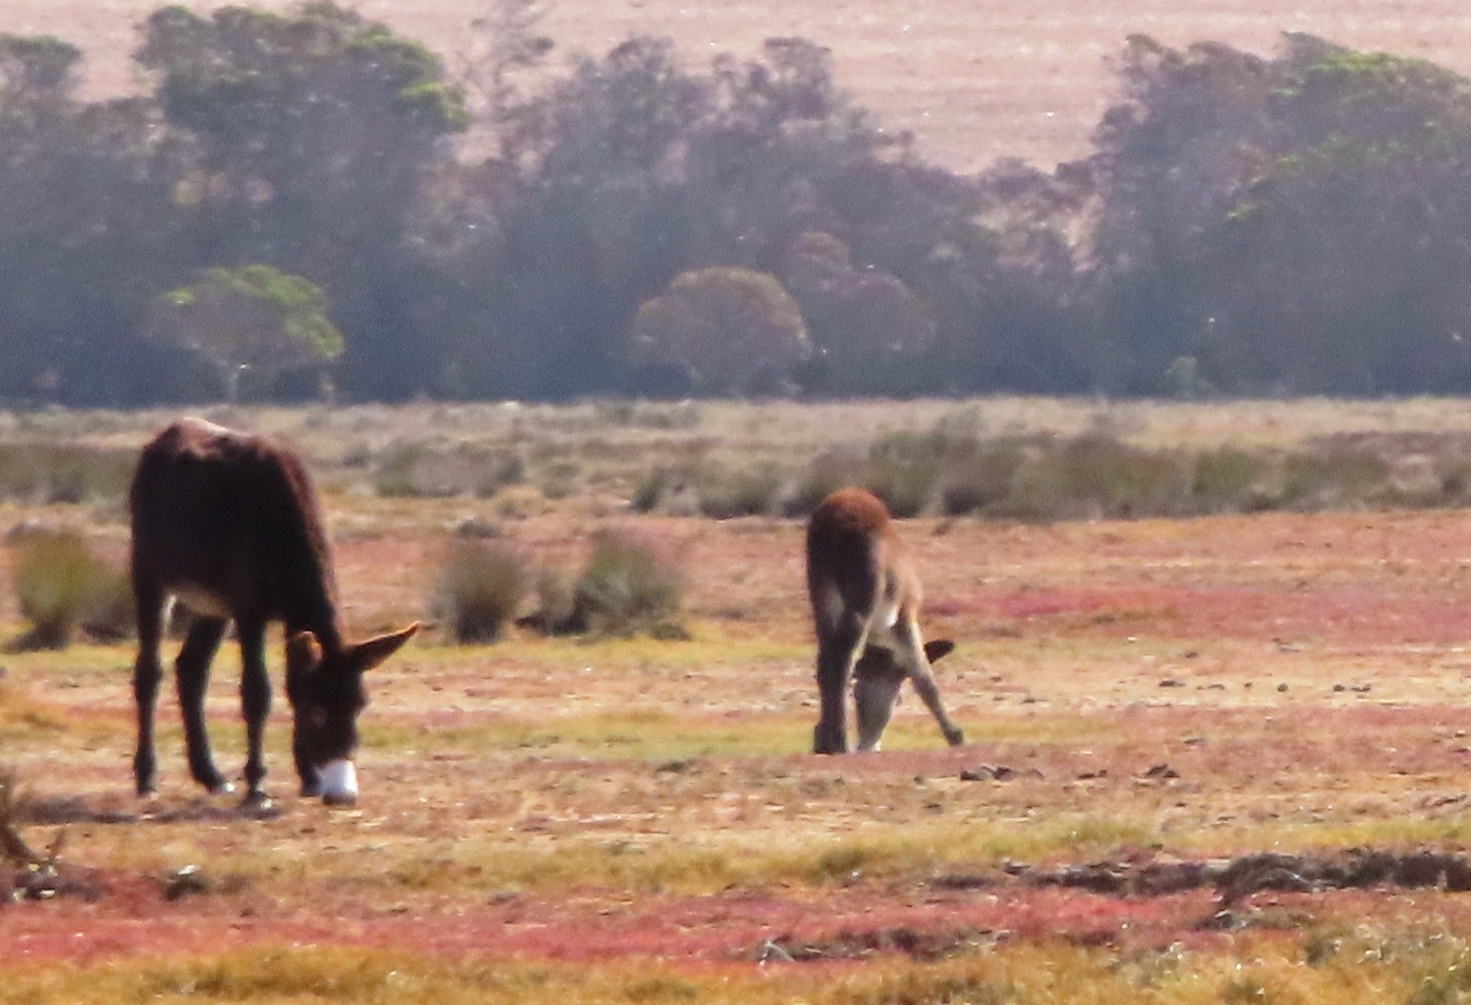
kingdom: Animalia
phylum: Chordata
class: Mammalia
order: Perissodactyla
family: Equidae
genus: Equus
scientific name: Equus asinus
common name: Ass
